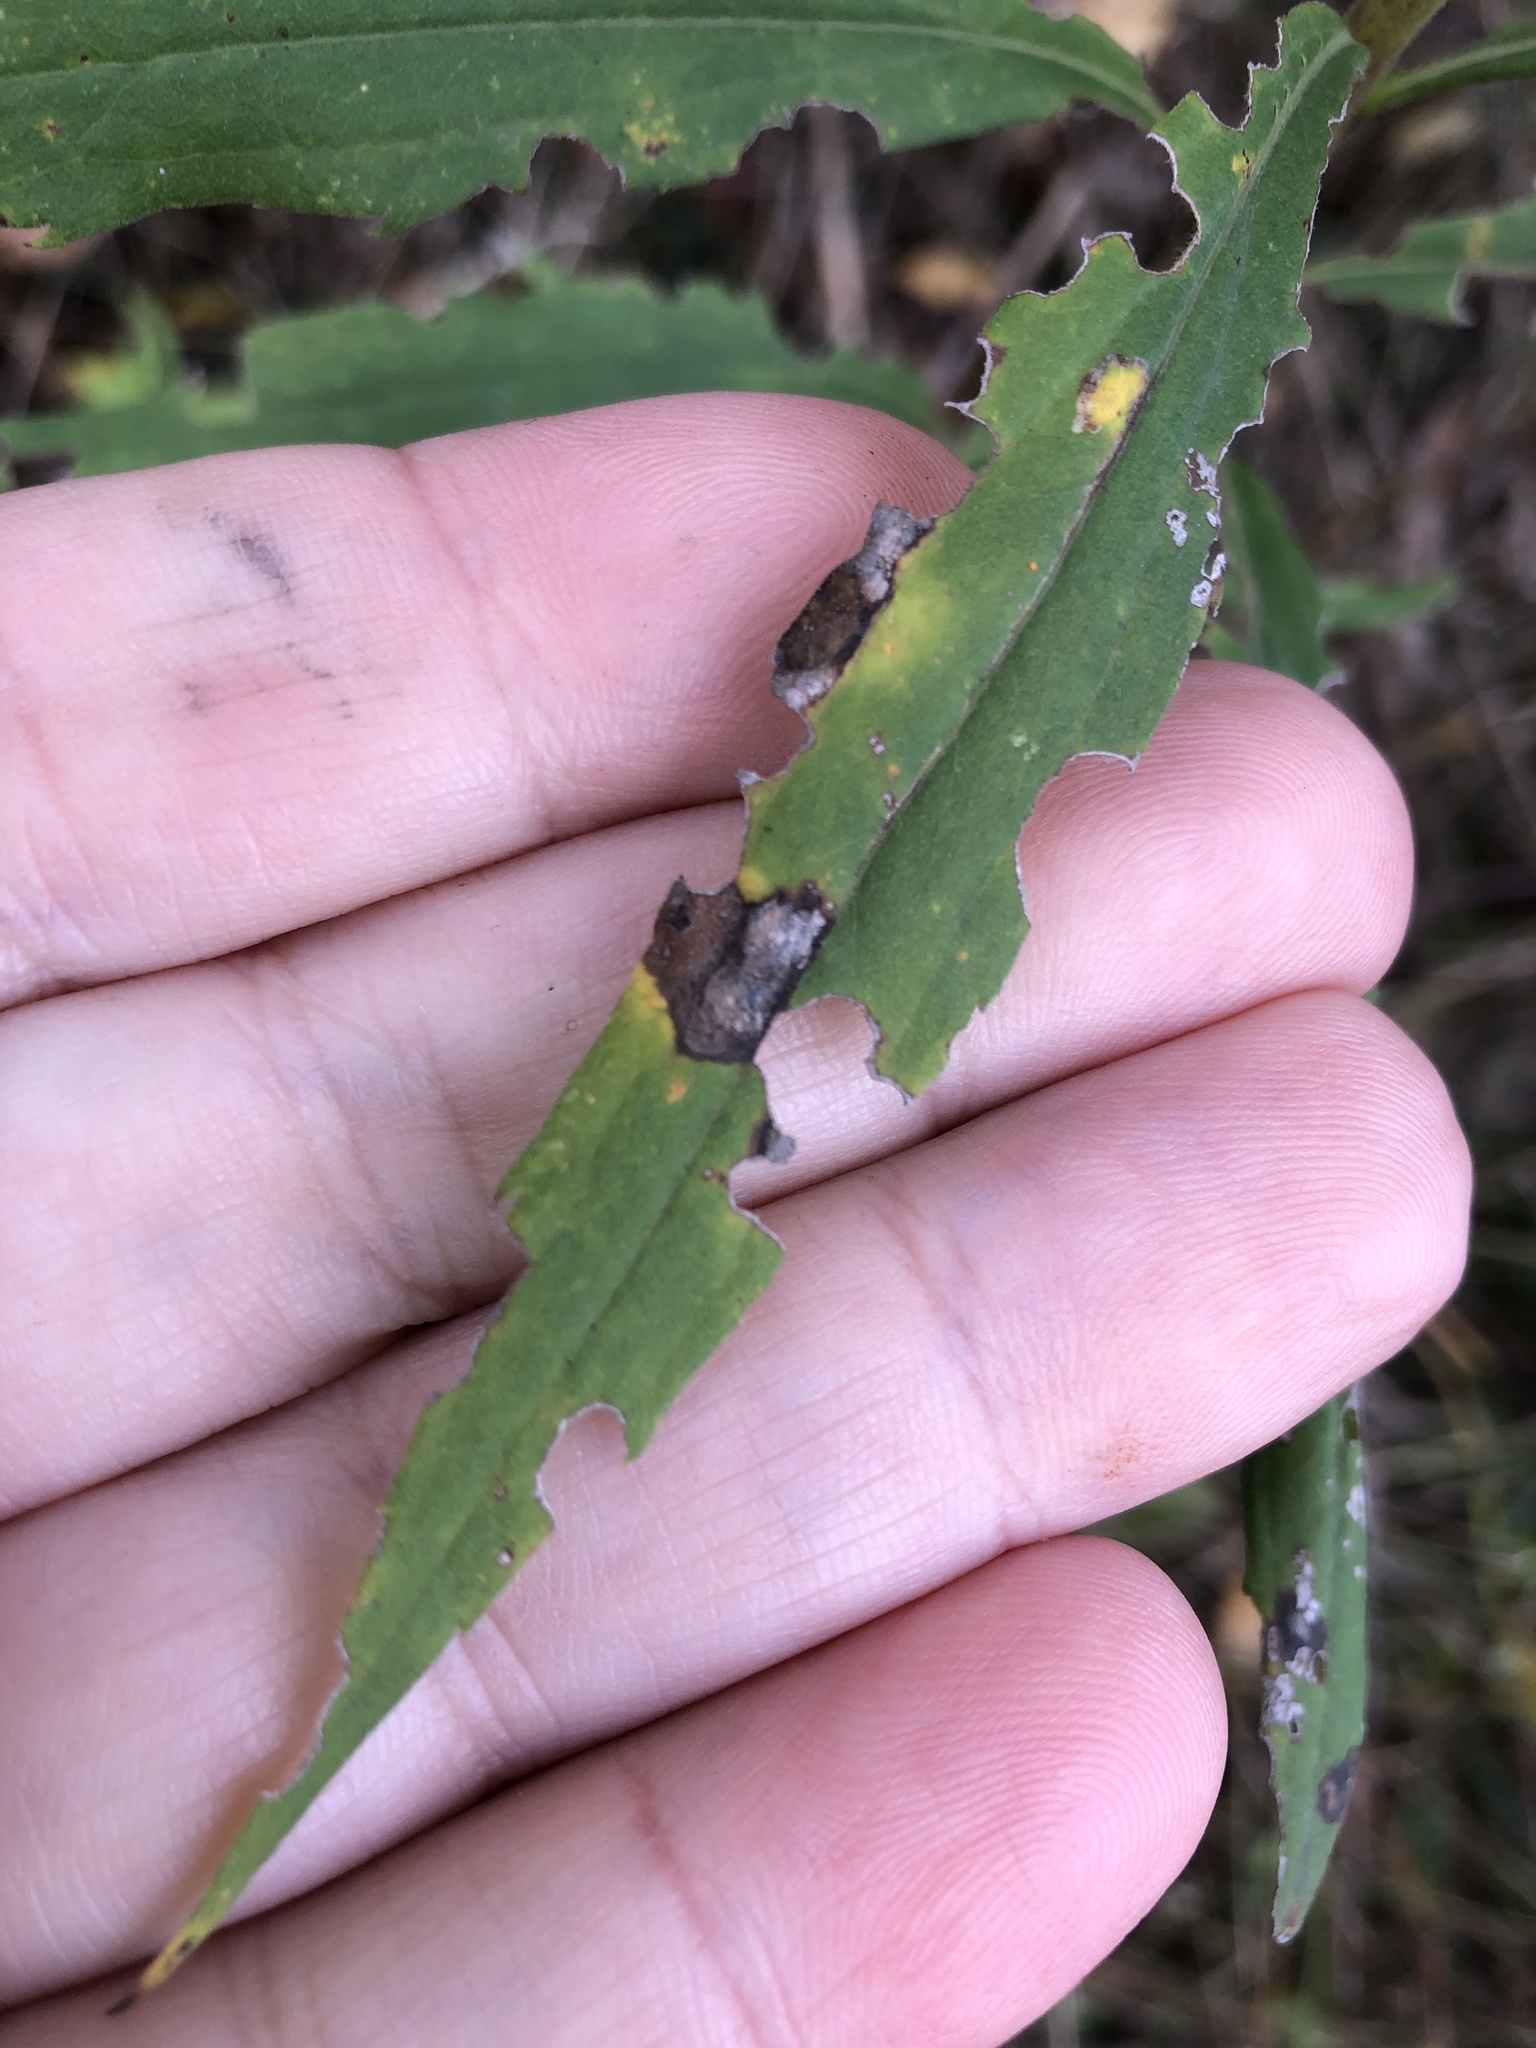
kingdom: Animalia
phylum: Arthropoda
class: Insecta
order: Diptera
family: Cecidomyiidae
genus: Asteromyia
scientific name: Asteromyia carbonifera
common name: Carbonifera goldenrod gall midge
